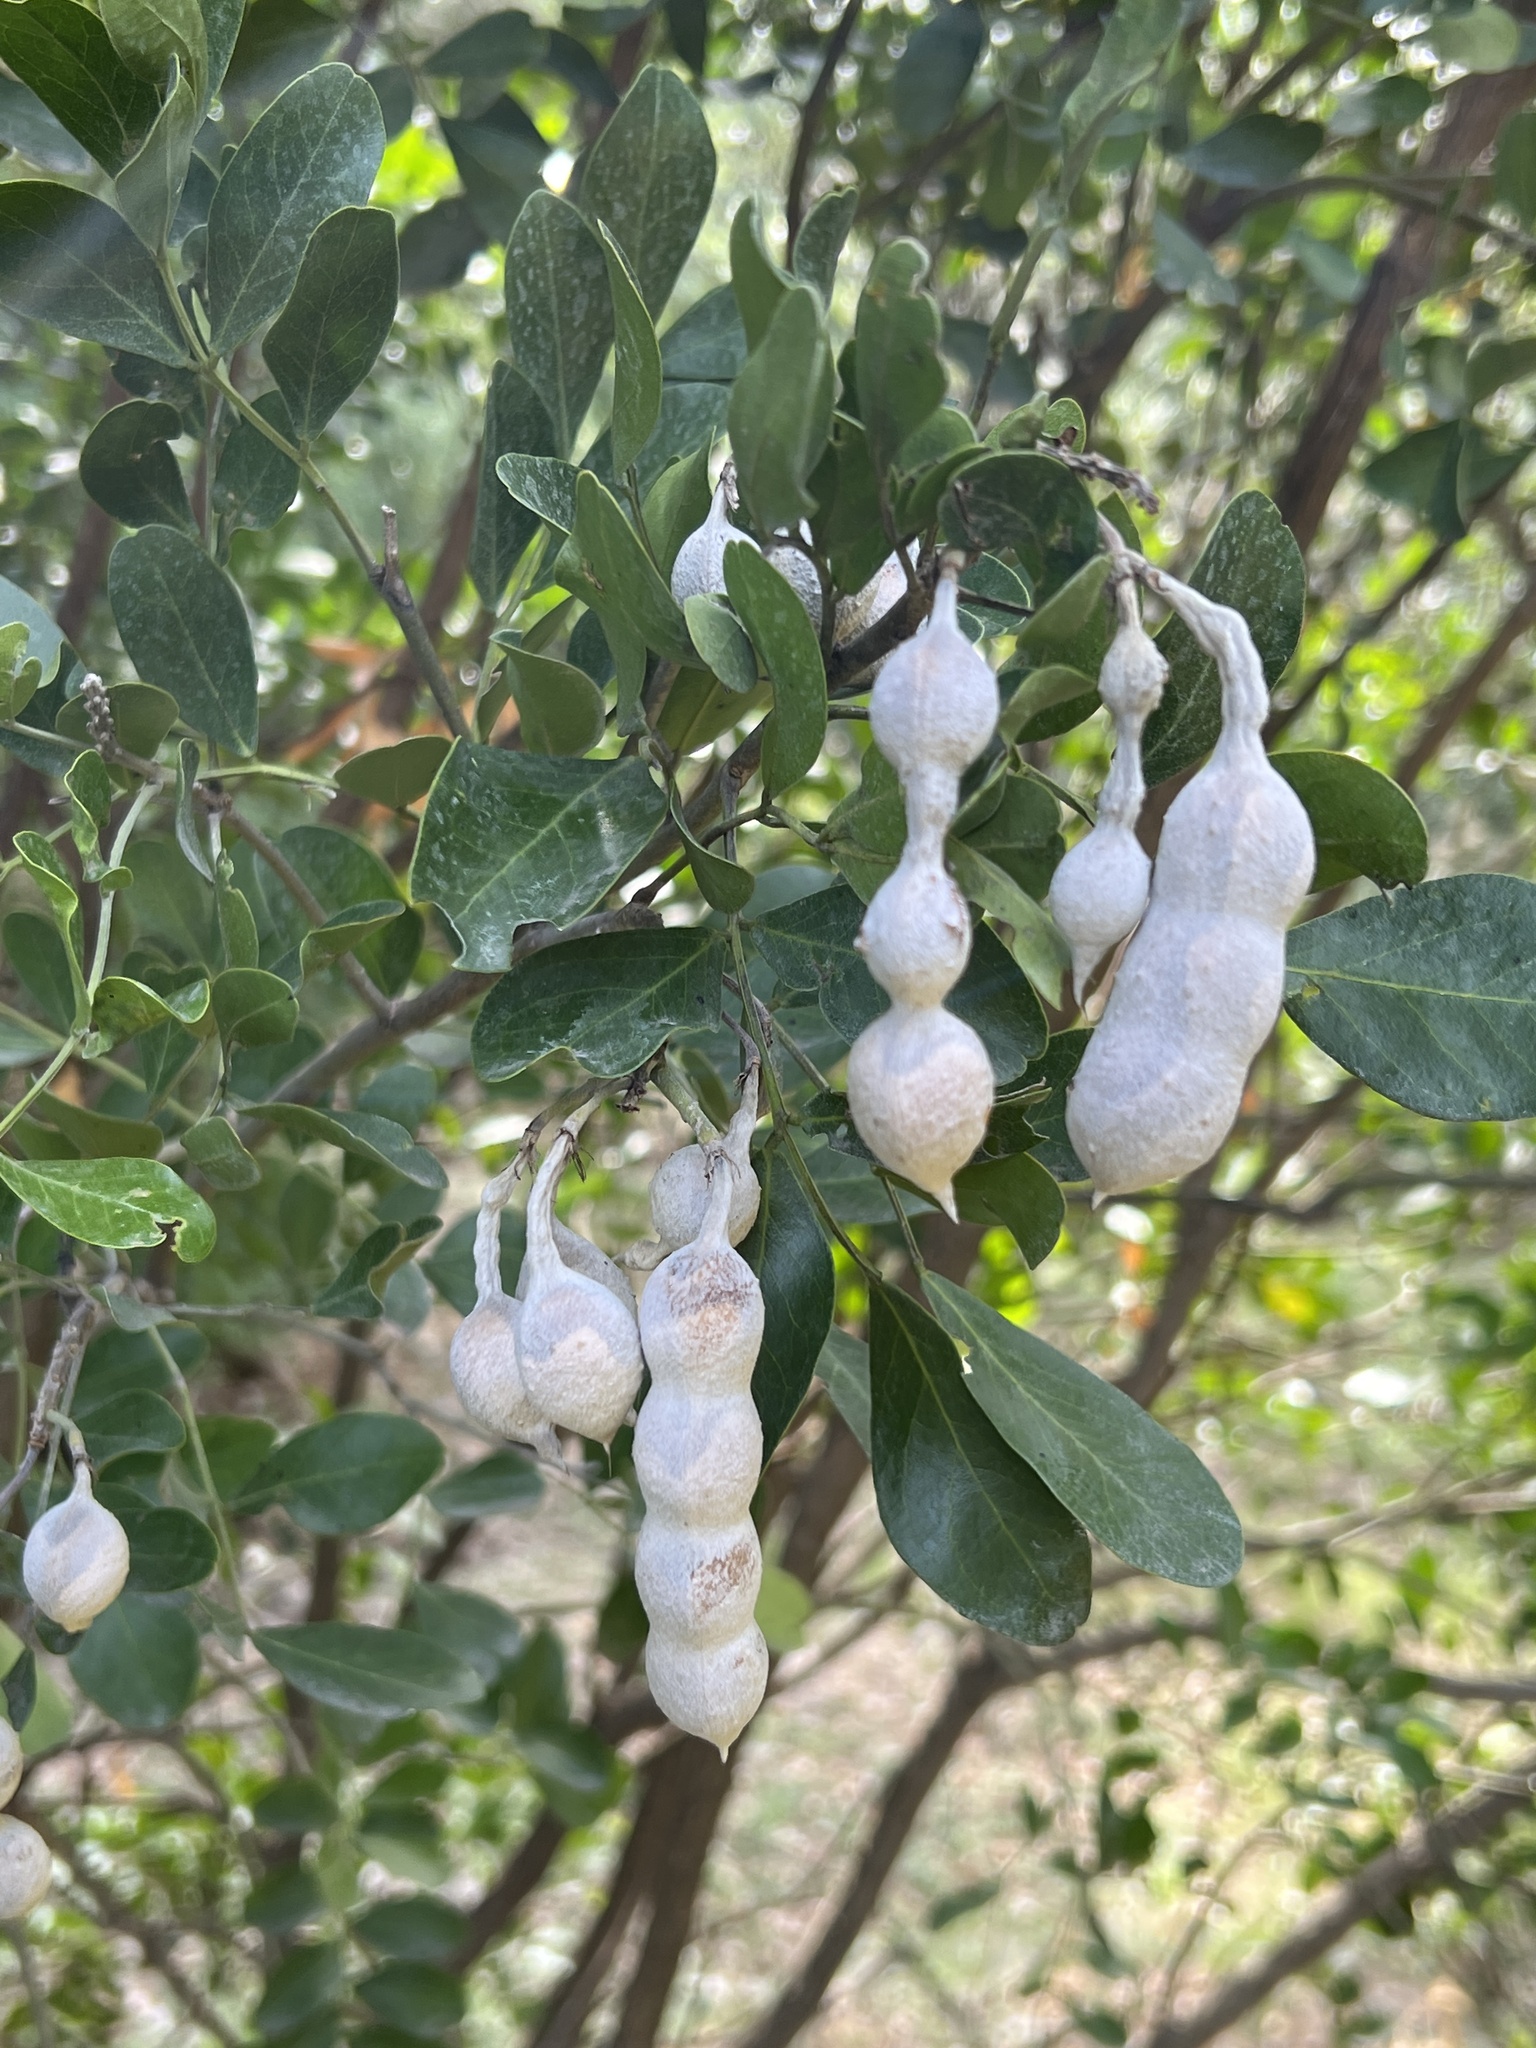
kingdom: Plantae
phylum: Tracheophyta
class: Magnoliopsida
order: Fabales
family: Fabaceae
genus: Dermatophyllum
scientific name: Dermatophyllum secundiflorum
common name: Texas-mountain-laurel
